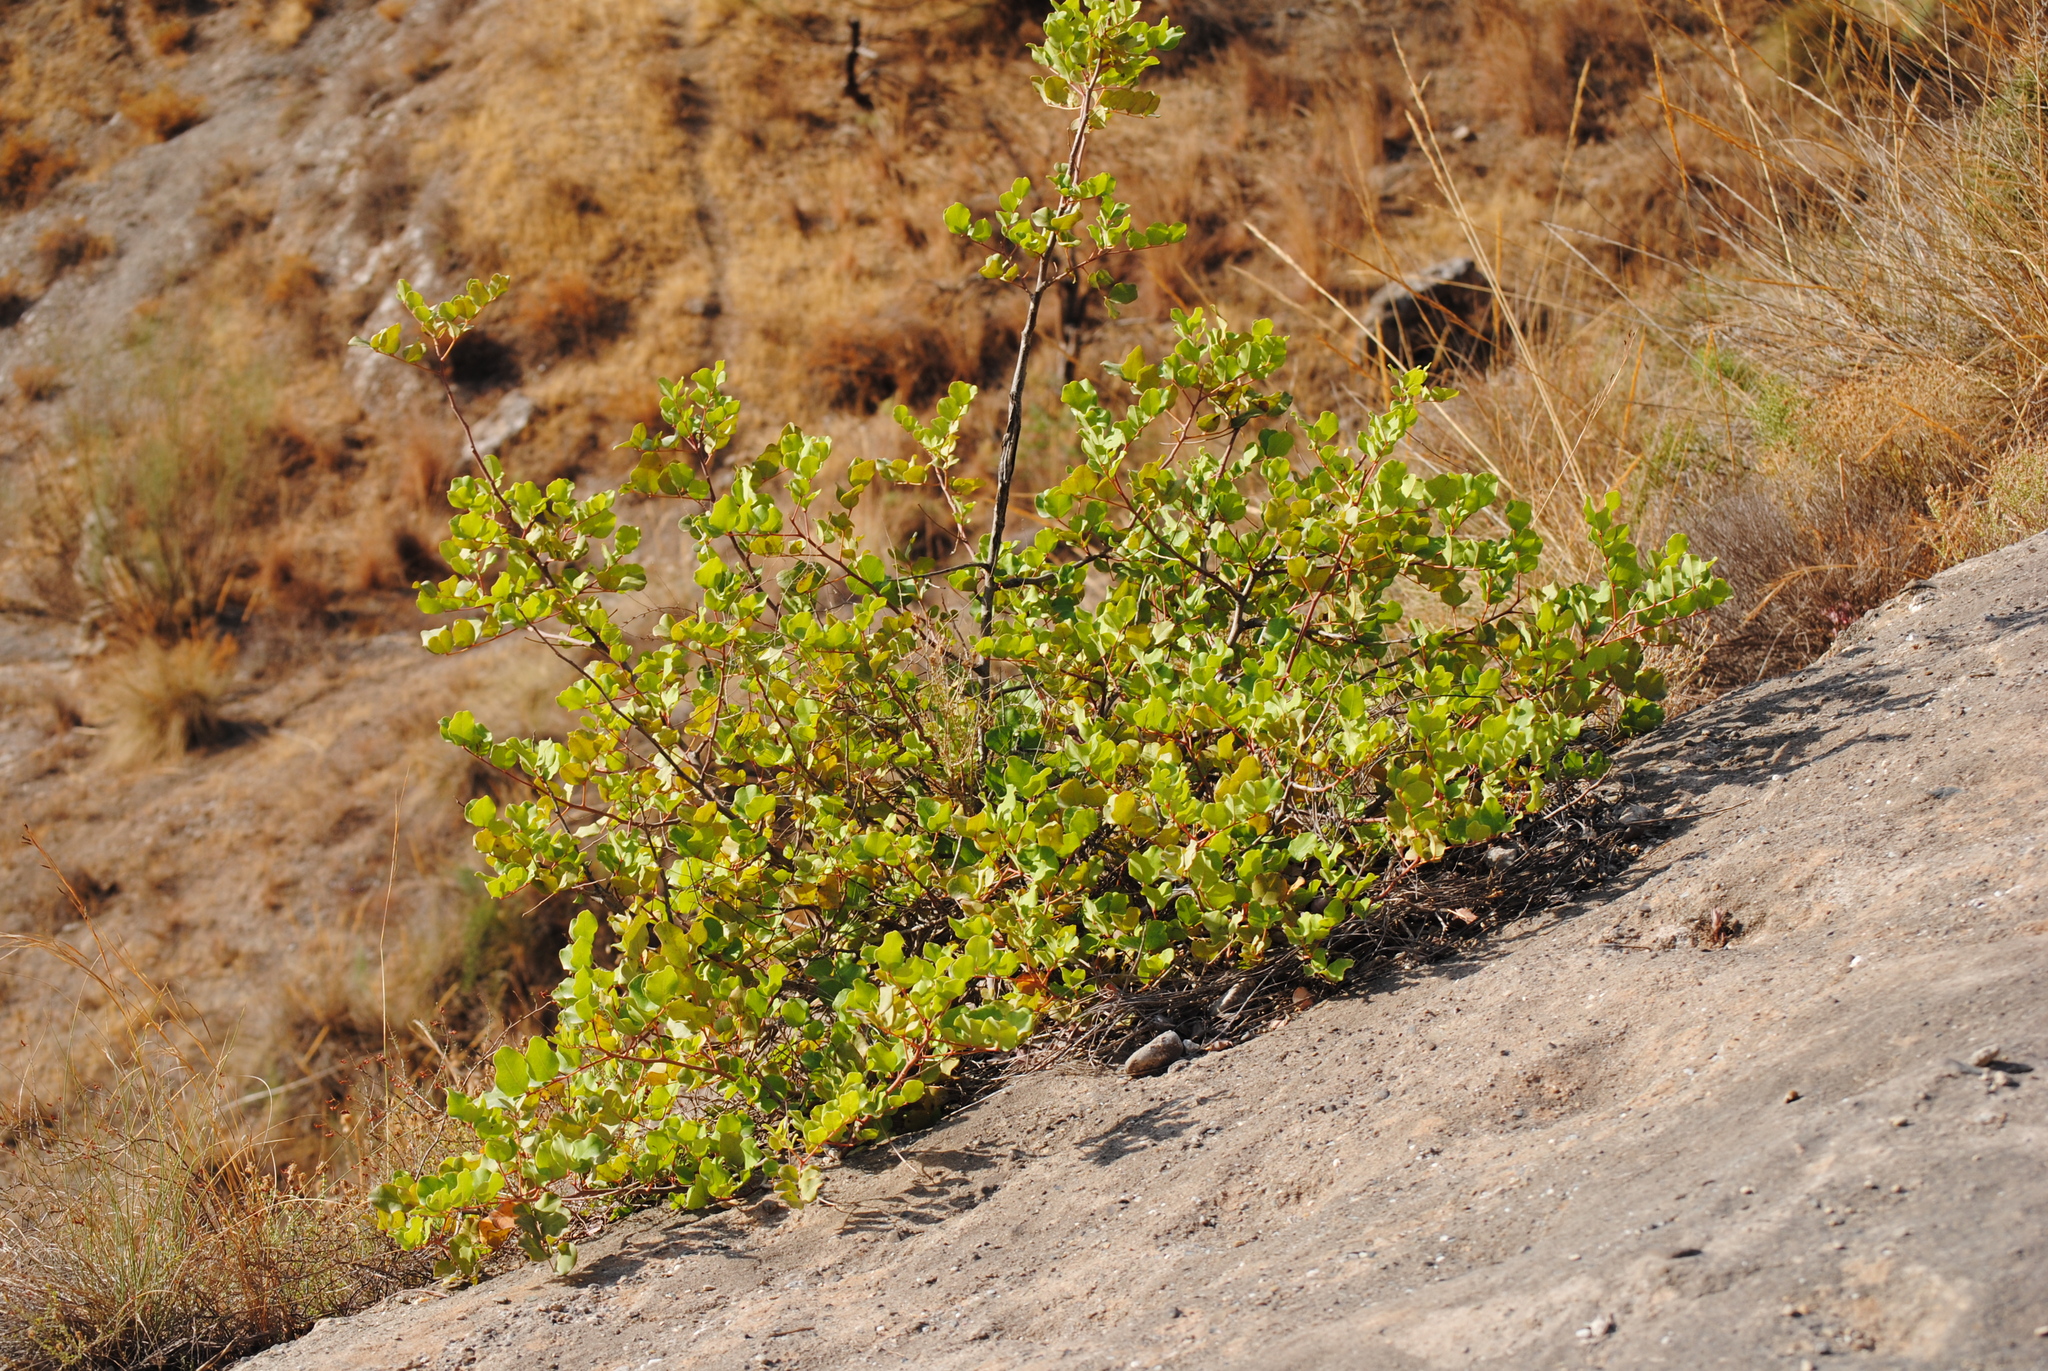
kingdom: Plantae
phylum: Tracheophyta
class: Magnoliopsida
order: Fabales
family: Fabaceae
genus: Ceratonia
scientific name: Ceratonia siliqua
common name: Carob
